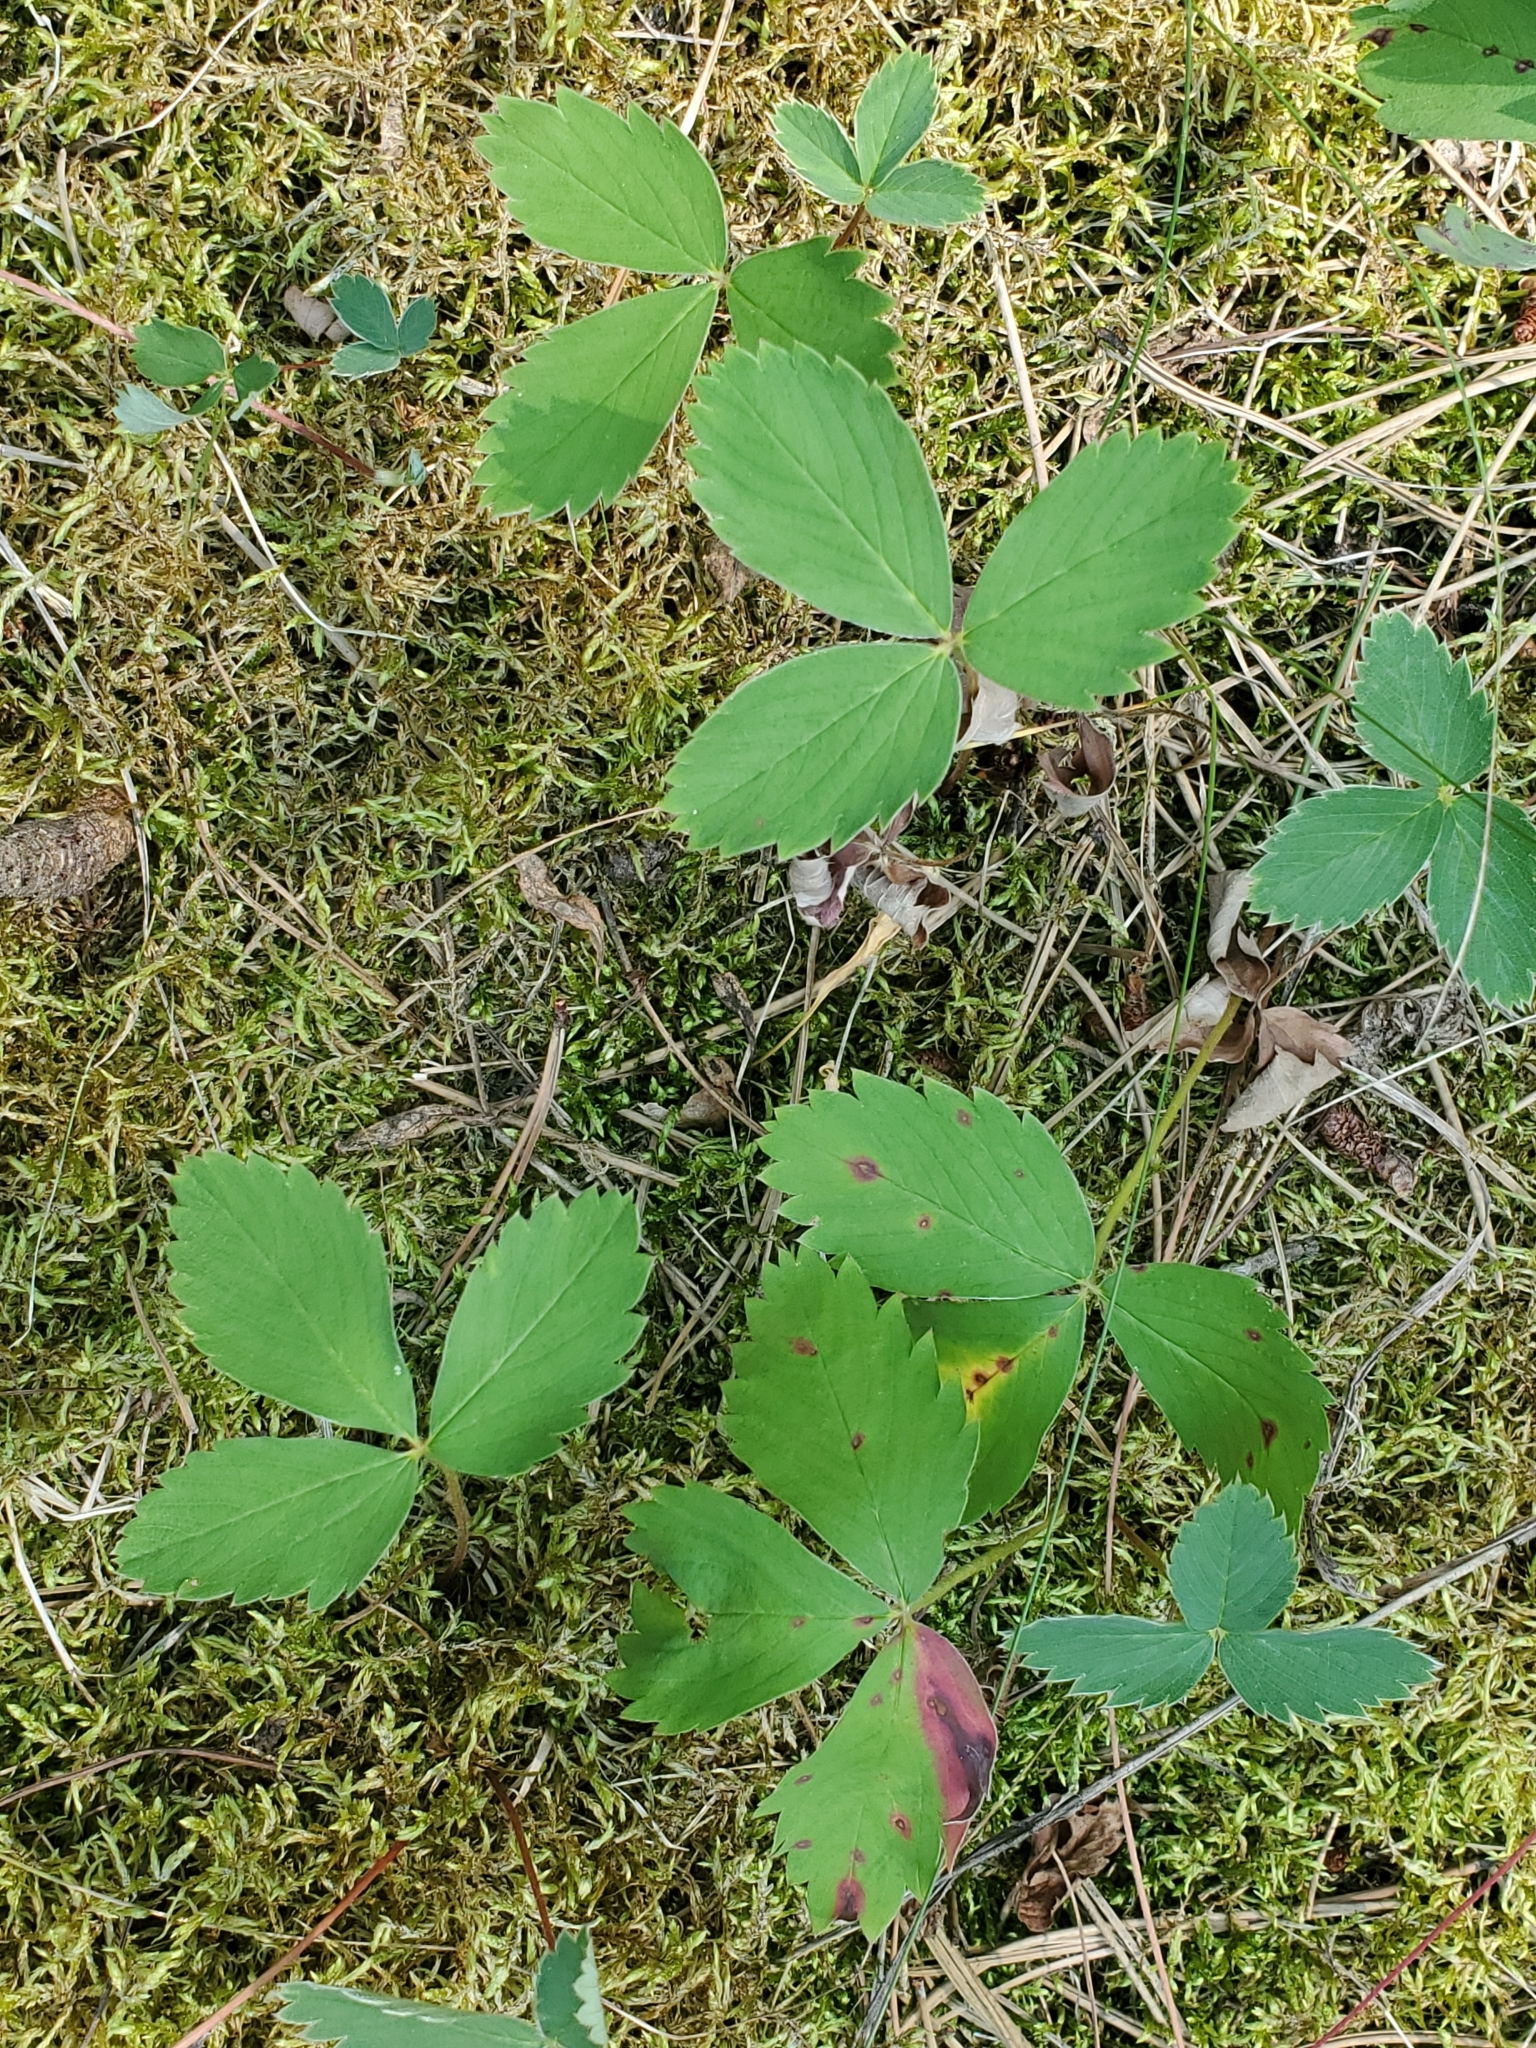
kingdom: Plantae
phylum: Tracheophyta
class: Magnoliopsida
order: Rosales
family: Rosaceae
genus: Fragaria
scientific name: Fragaria virginiana
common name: Thickleaved wild strawberry
